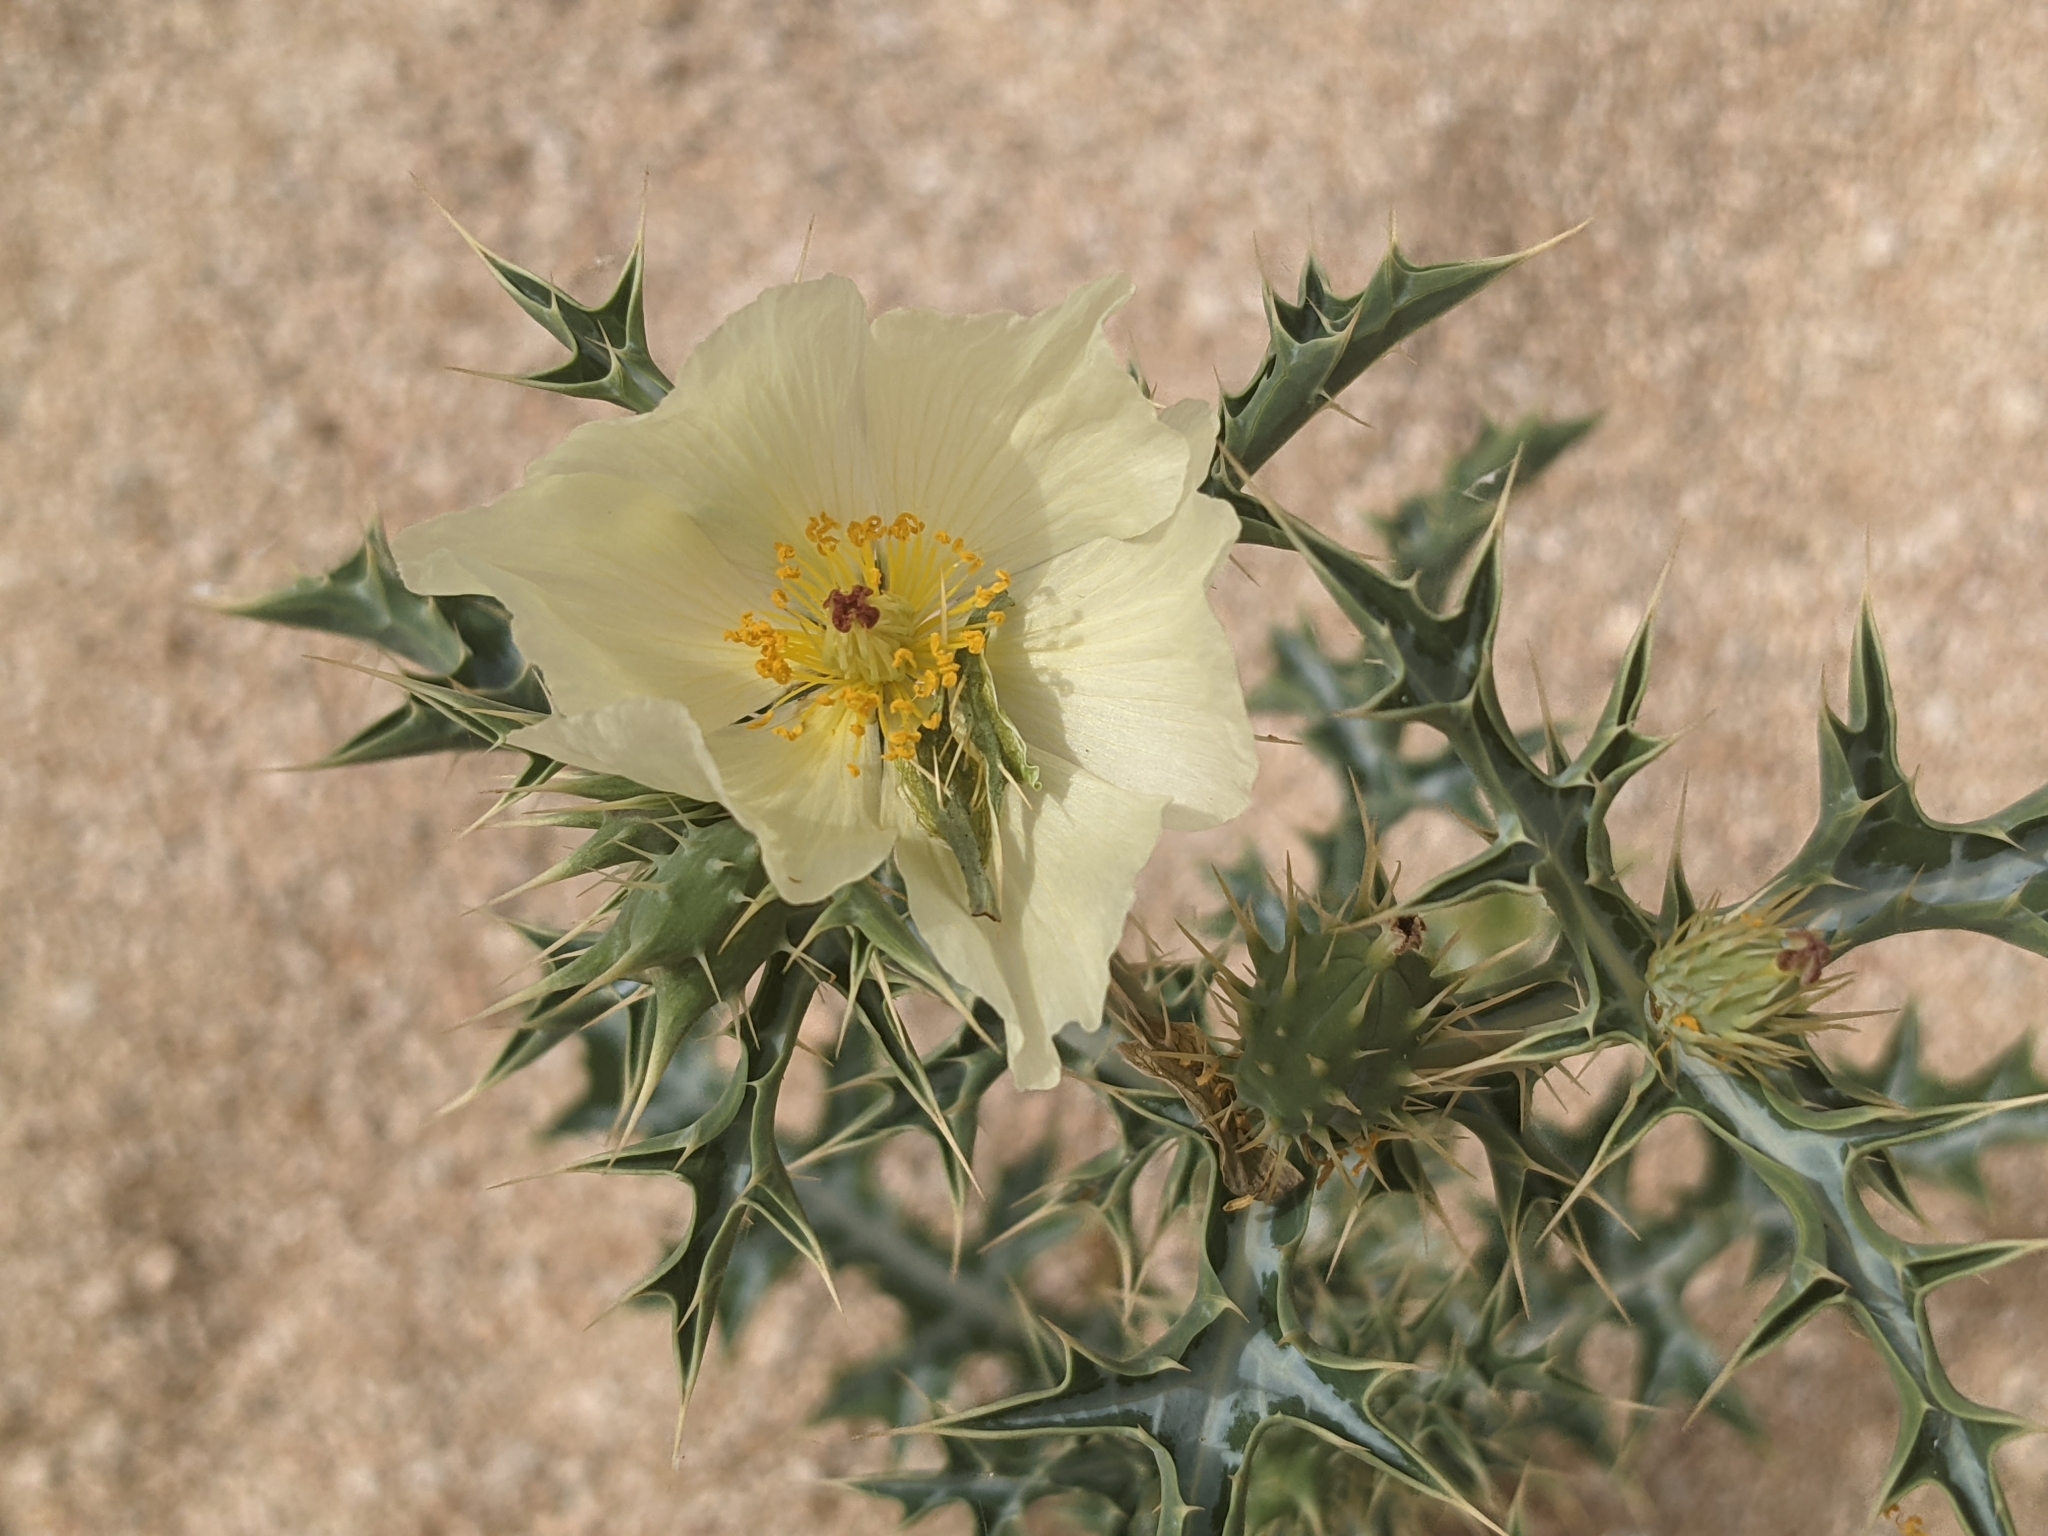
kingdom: Plantae
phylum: Tracheophyta
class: Magnoliopsida
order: Ranunculales
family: Papaveraceae
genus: Argemone
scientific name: Argemone ochroleuca
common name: White-flower mexican-poppy
